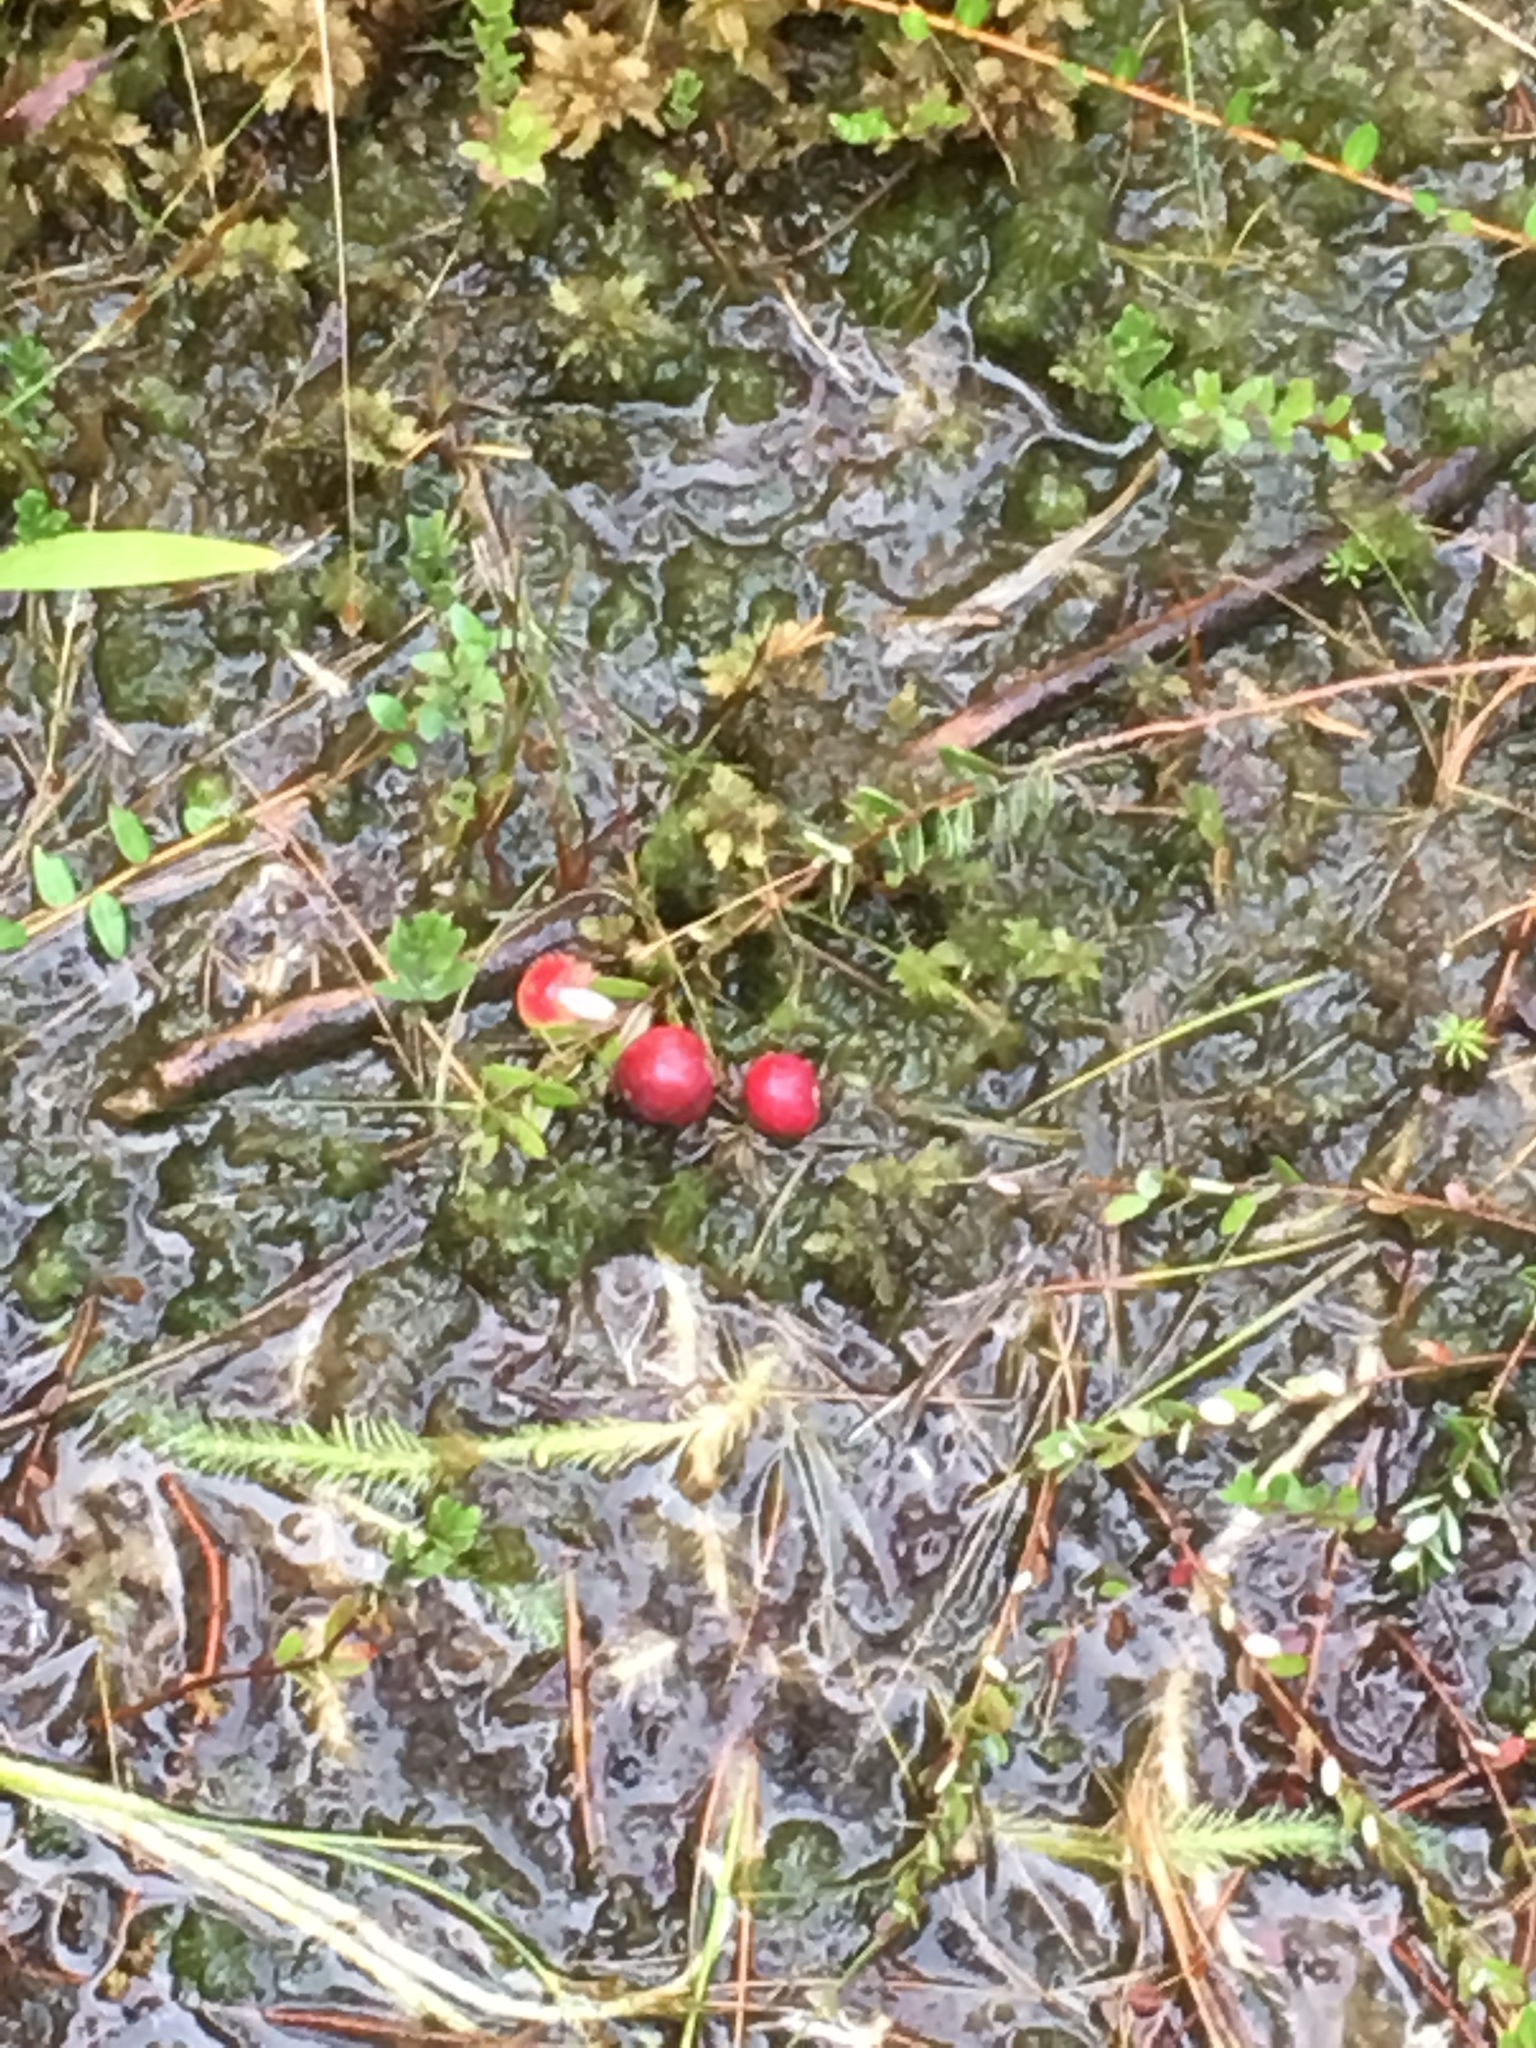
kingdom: Plantae
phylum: Tracheophyta
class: Magnoliopsida
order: Ericales
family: Ericaceae
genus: Vaccinium
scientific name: Vaccinium macrocarpon
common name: American cranberry
